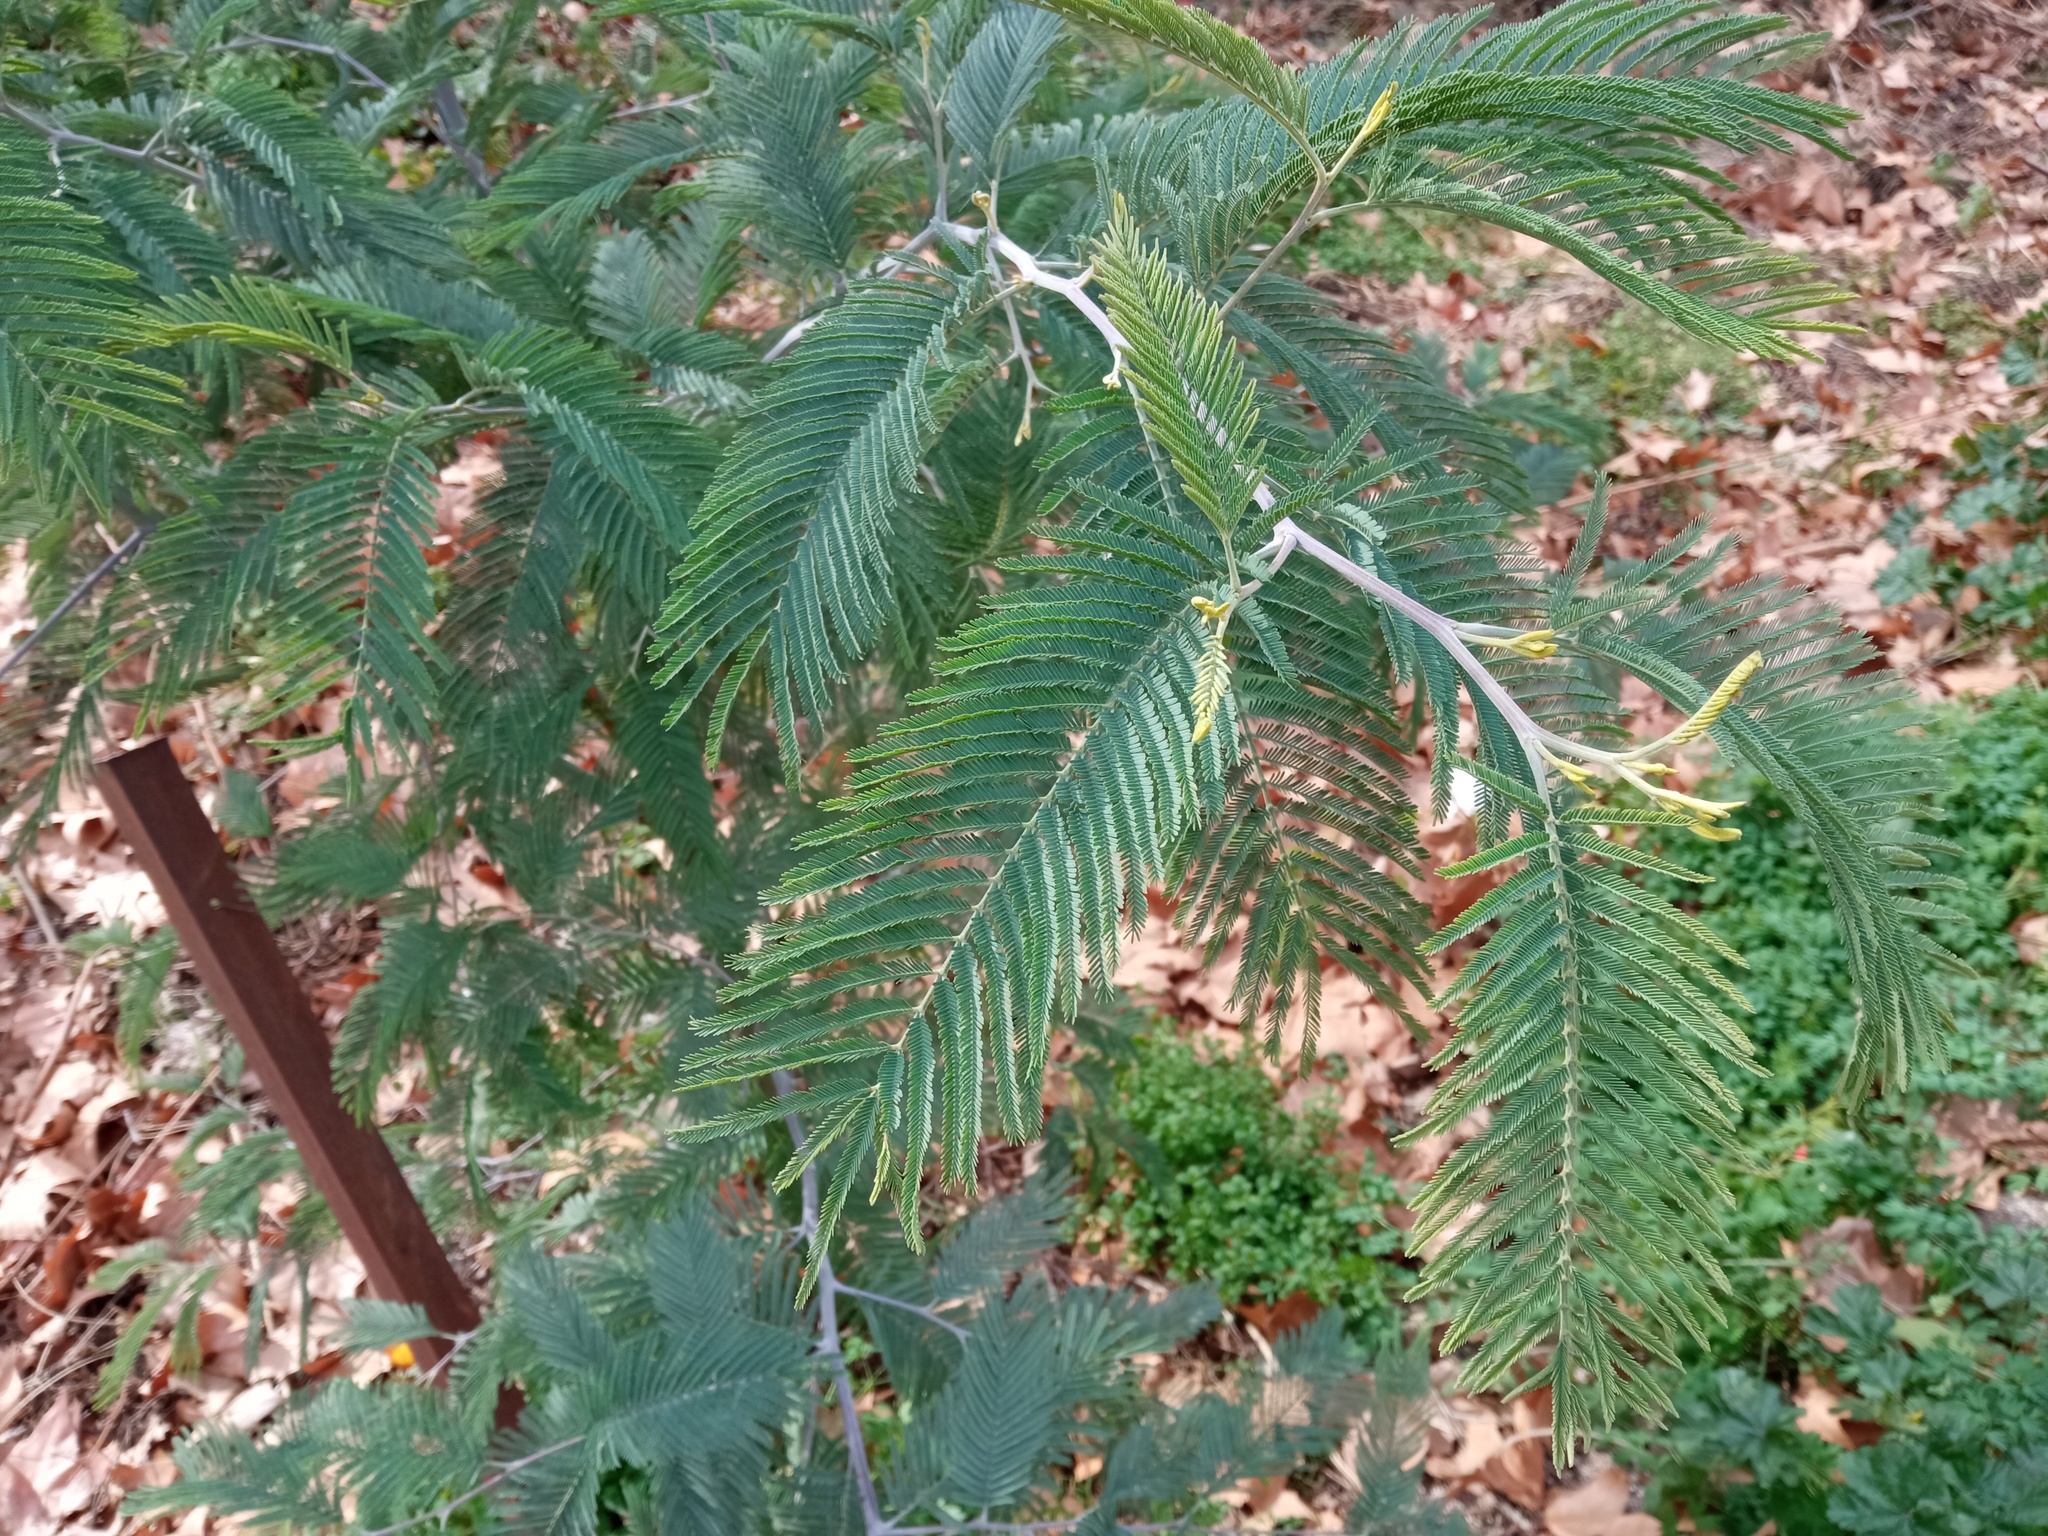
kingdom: Plantae
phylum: Tracheophyta
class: Magnoliopsida
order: Fabales
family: Fabaceae
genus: Acacia
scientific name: Acacia dealbata
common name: Silver wattle
